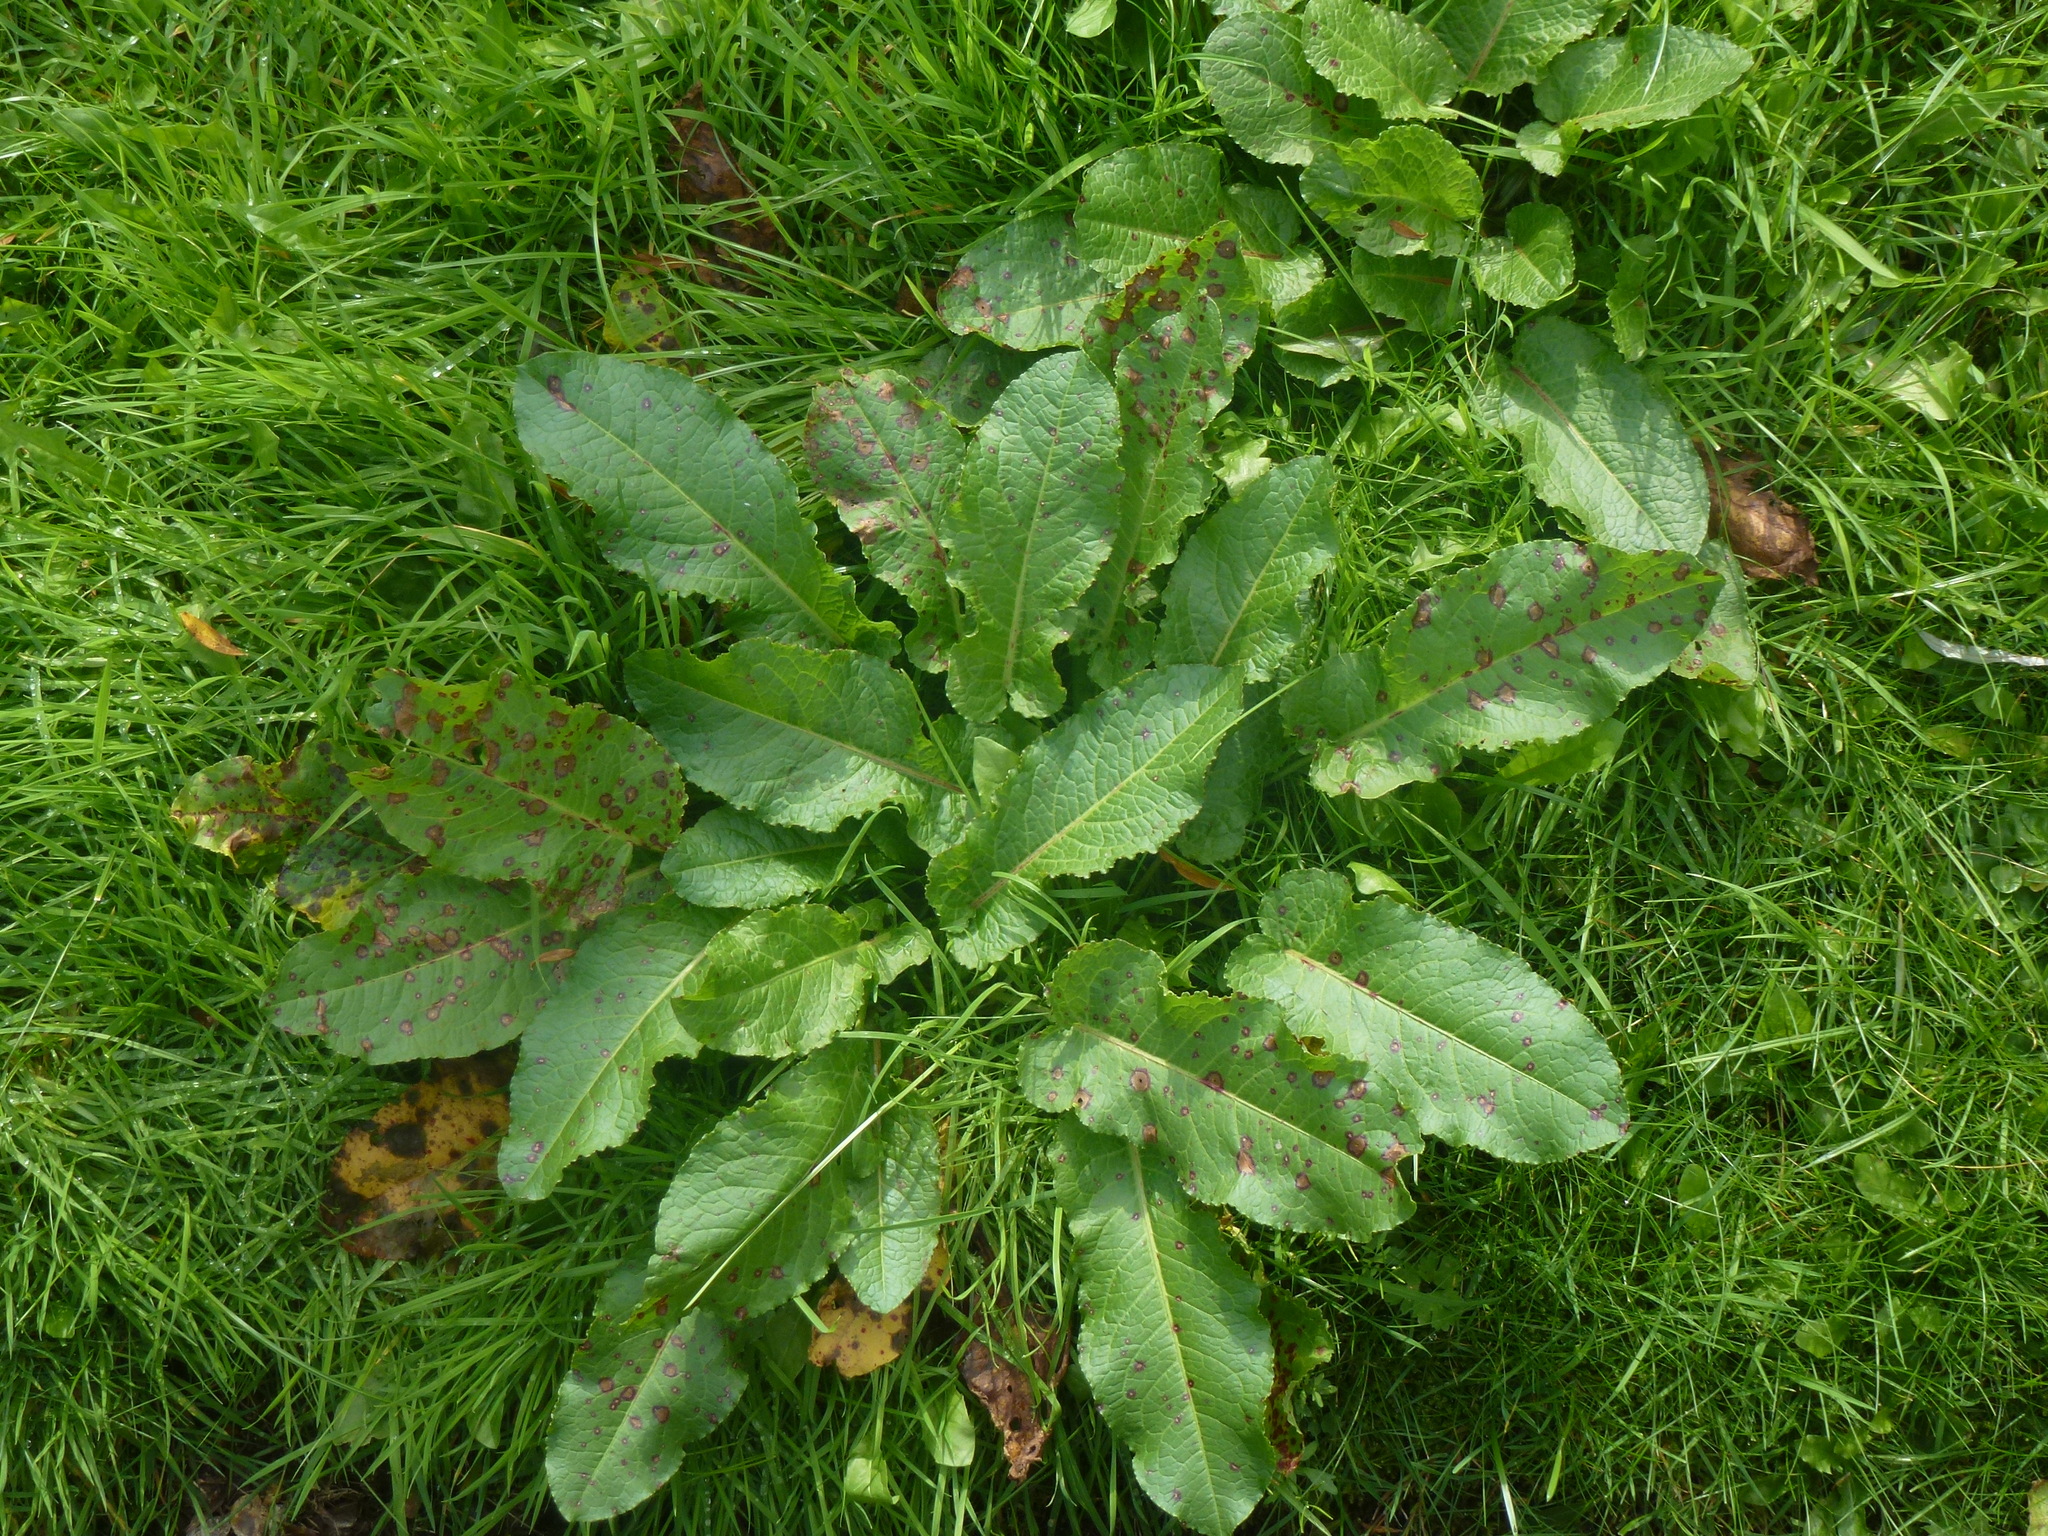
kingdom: Plantae
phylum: Tracheophyta
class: Magnoliopsida
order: Caryophyllales
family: Polygonaceae
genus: Rumex
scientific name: Rumex obtusifolius
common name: Bitter dock
